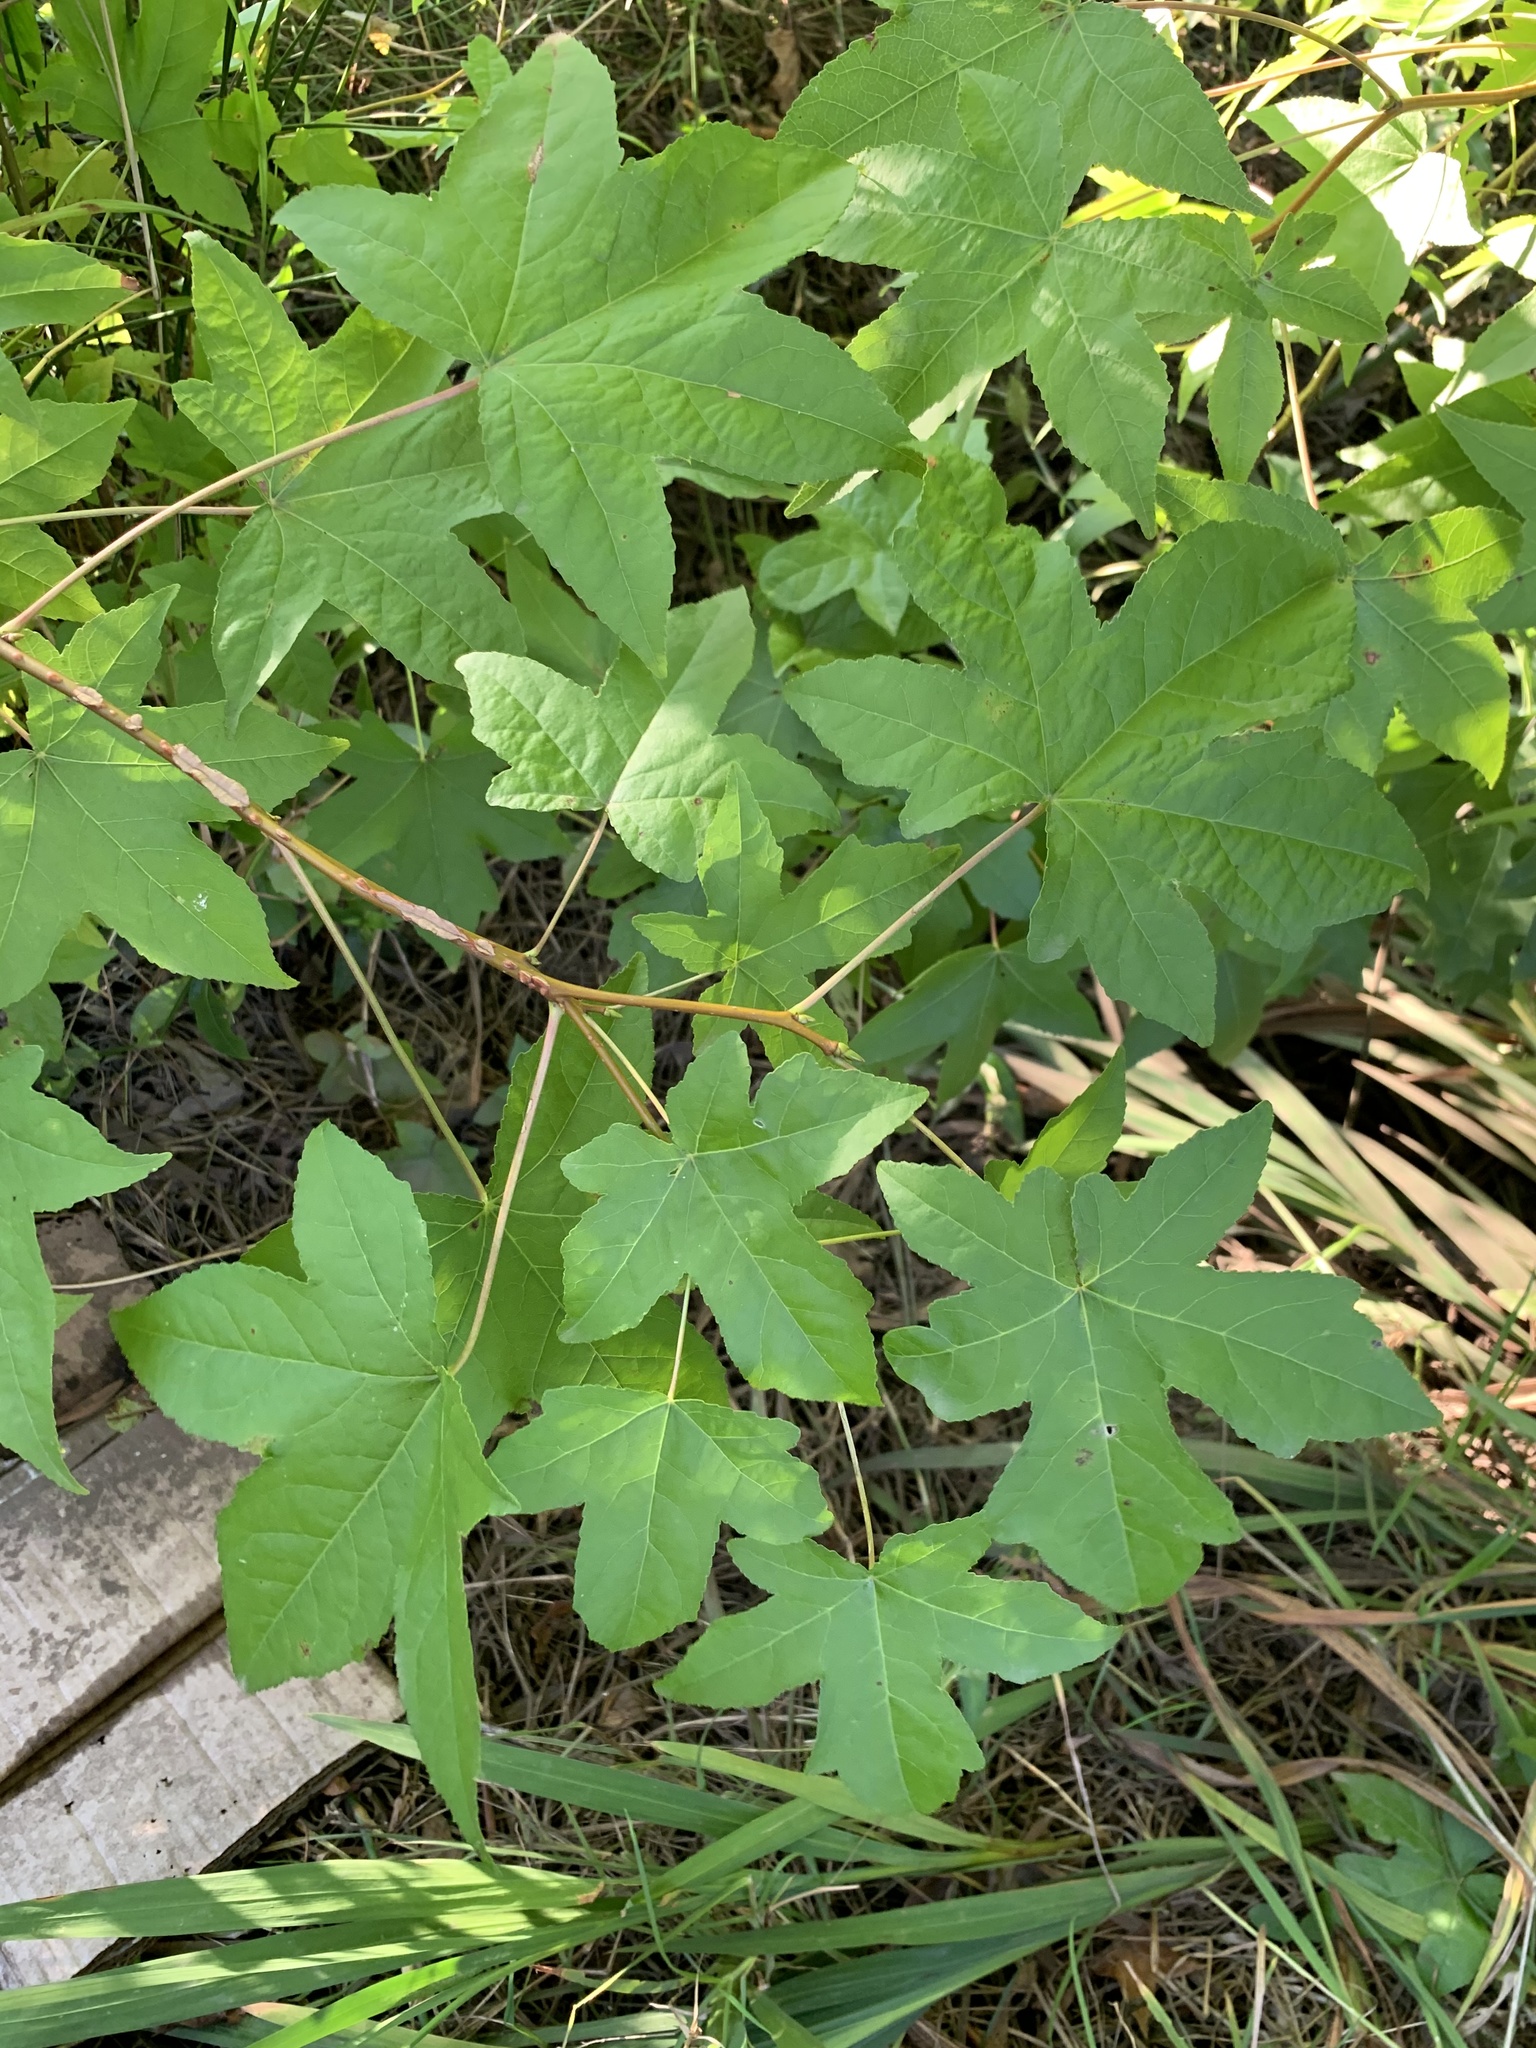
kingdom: Plantae
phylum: Tracheophyta
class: Magnoliopsida
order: Saxifragales
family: Altingiaceae
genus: Liquidambar
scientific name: Liquidambar styraciflua
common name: Sweet gum
